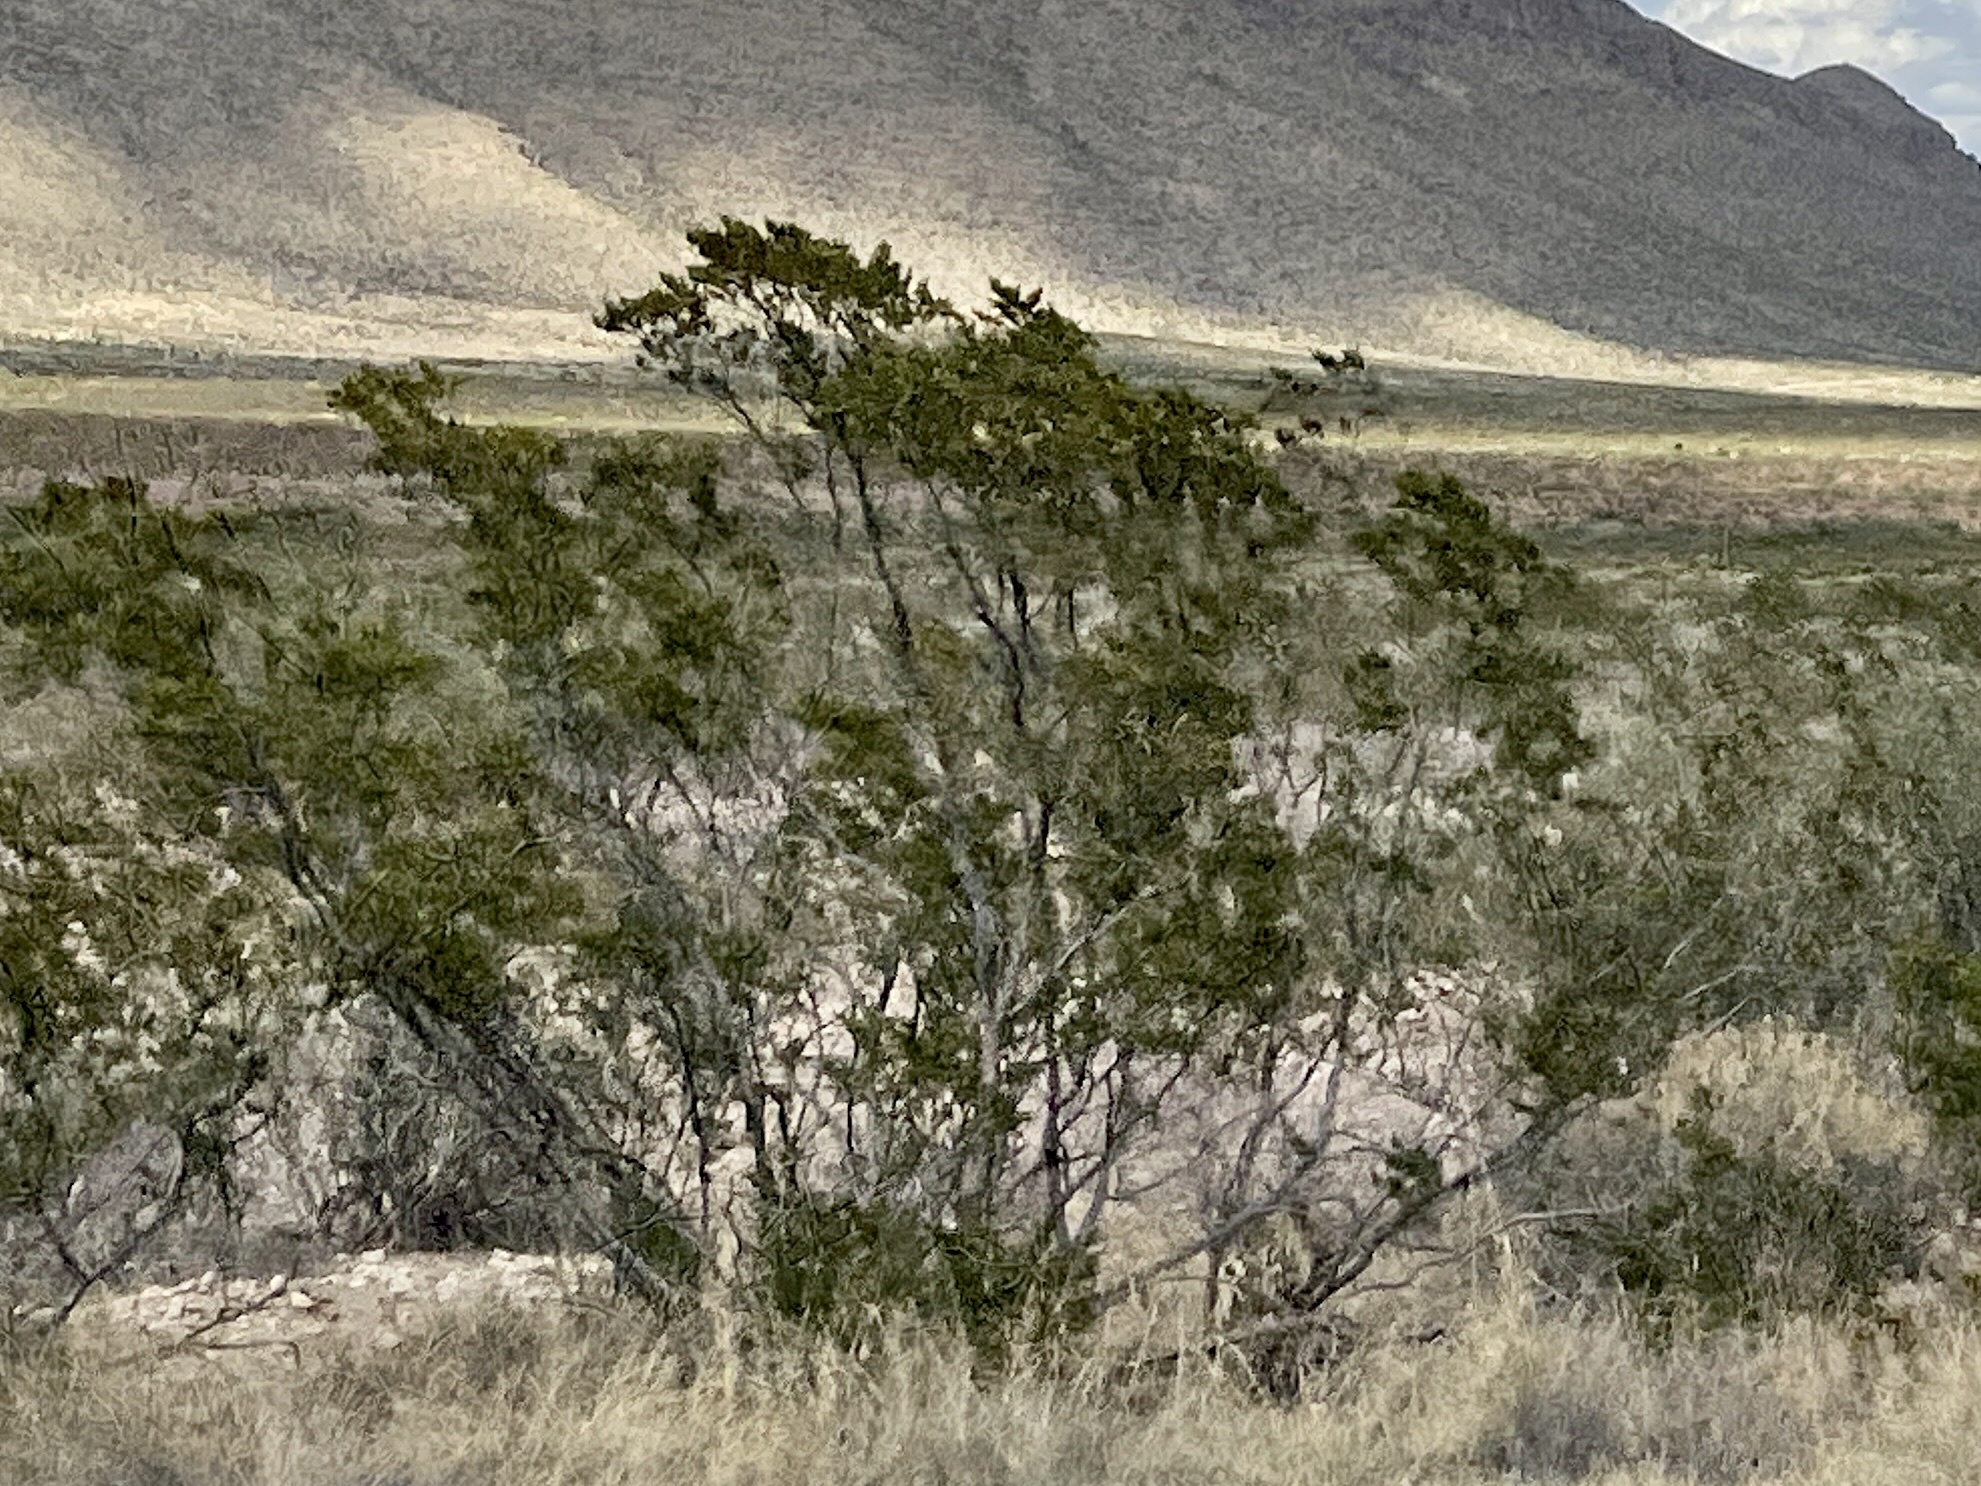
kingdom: Plantae
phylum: Tracheophyta
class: Magnoliopsida
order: Zygophyllales
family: Zygophyllaceae
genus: Larrea
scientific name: Larrea tridentata
